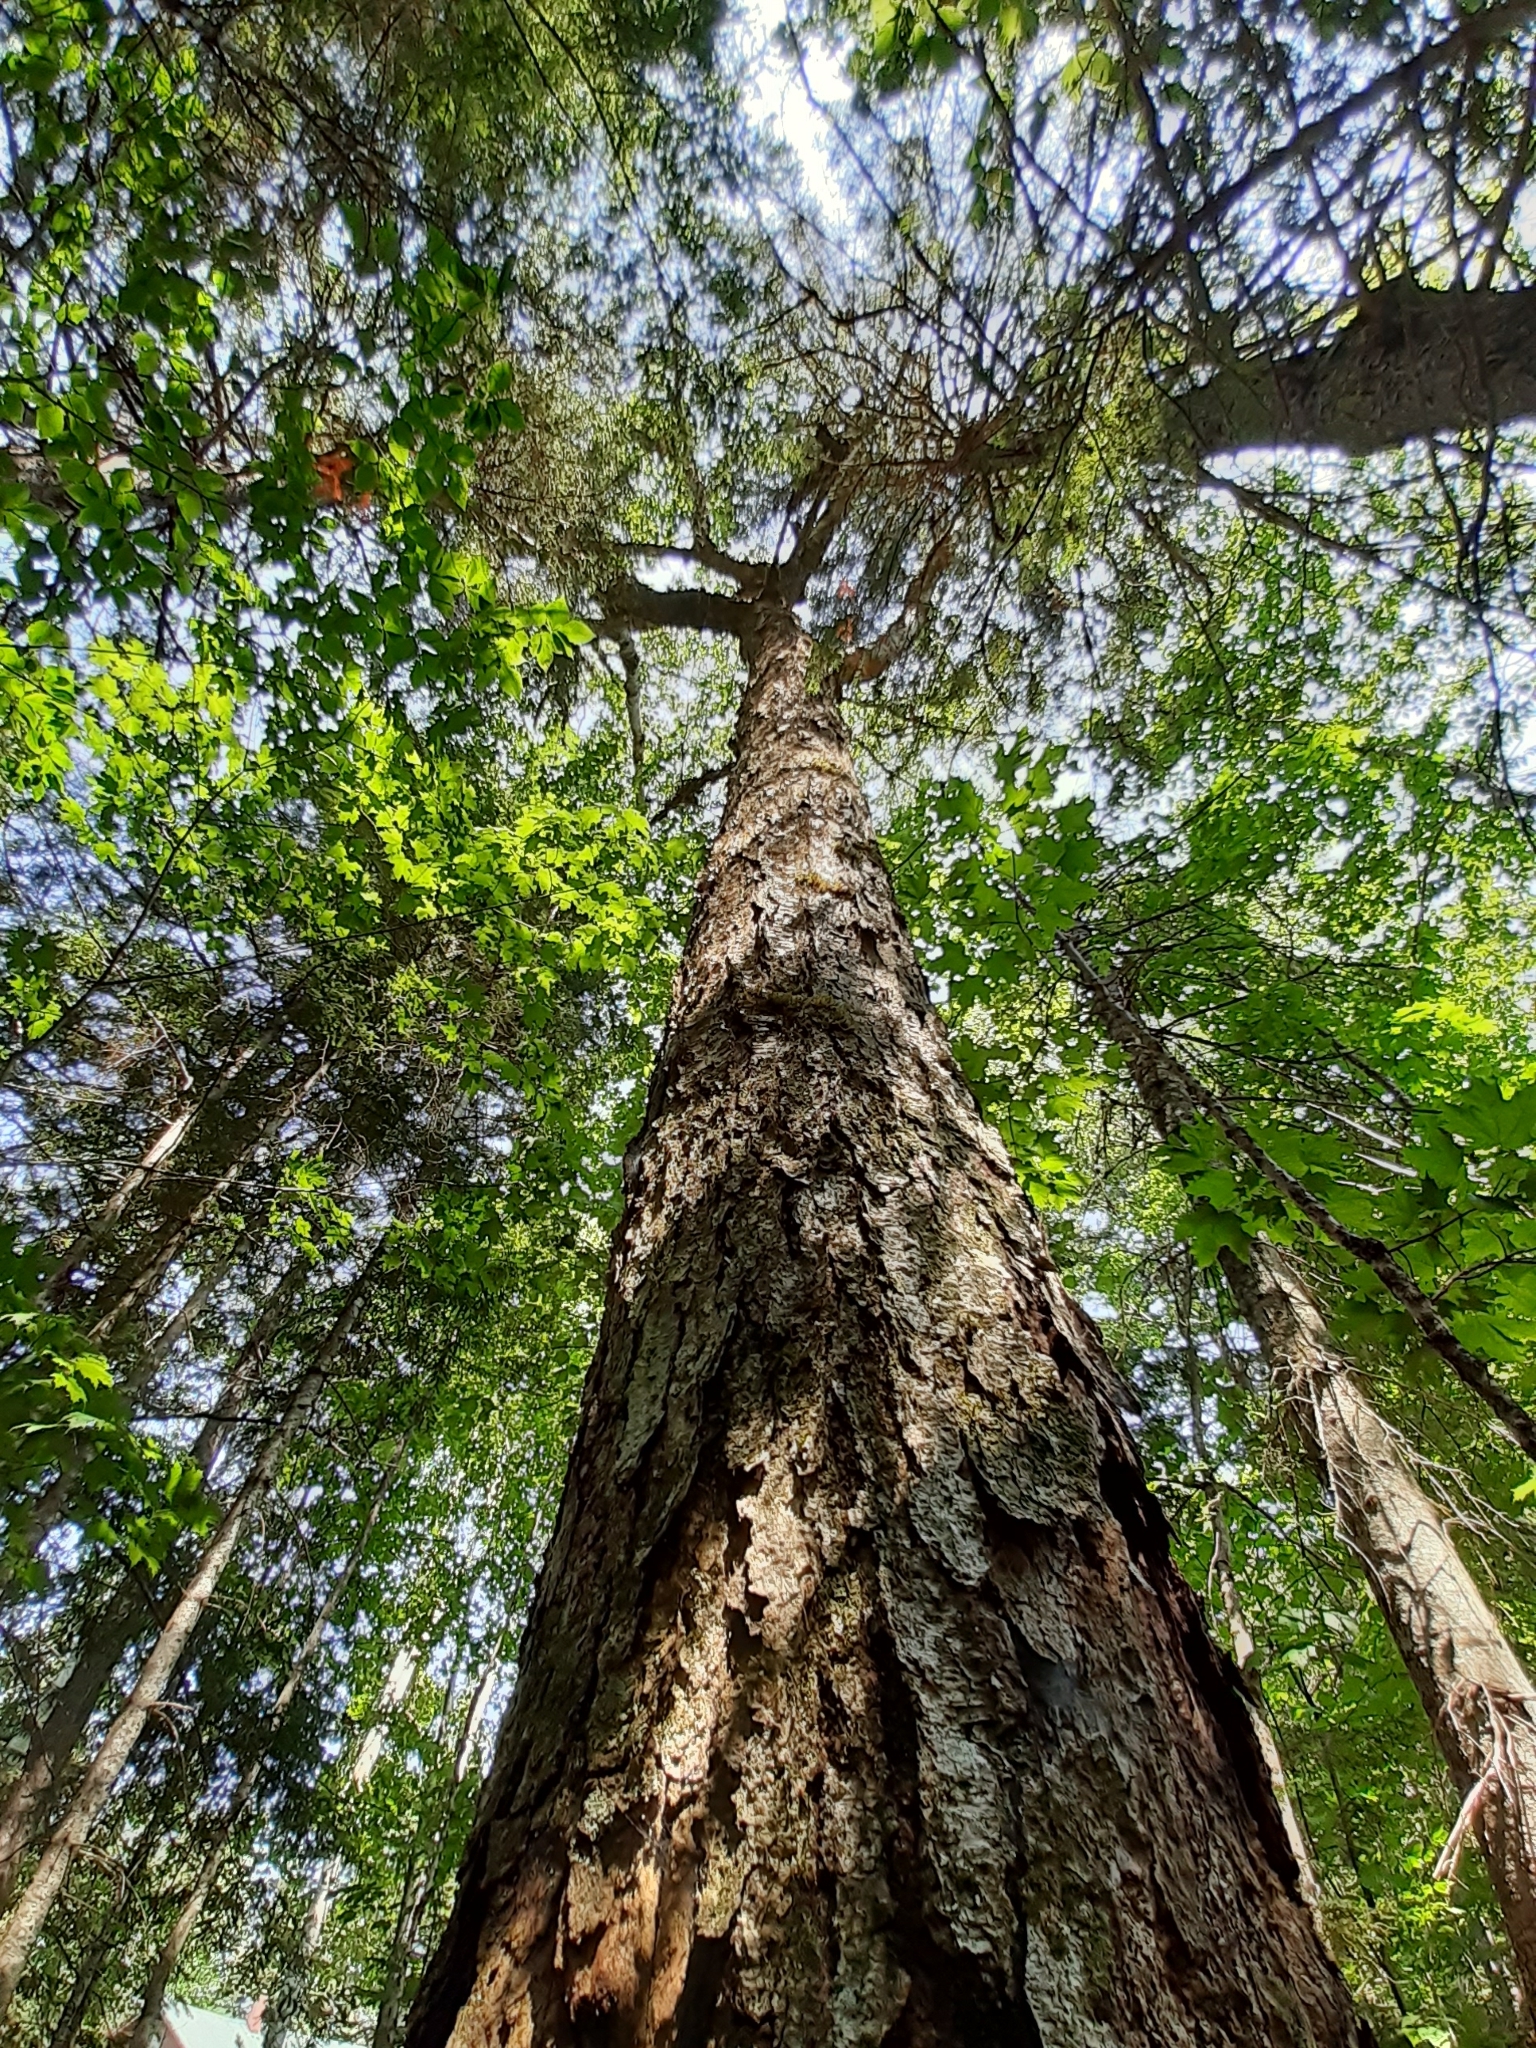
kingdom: Plantae
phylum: Tracheophyta
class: Magnoliopsida
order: Fagales
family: Betulaceae
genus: Betula
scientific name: Betula alleghaniensis
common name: Yellow birch
